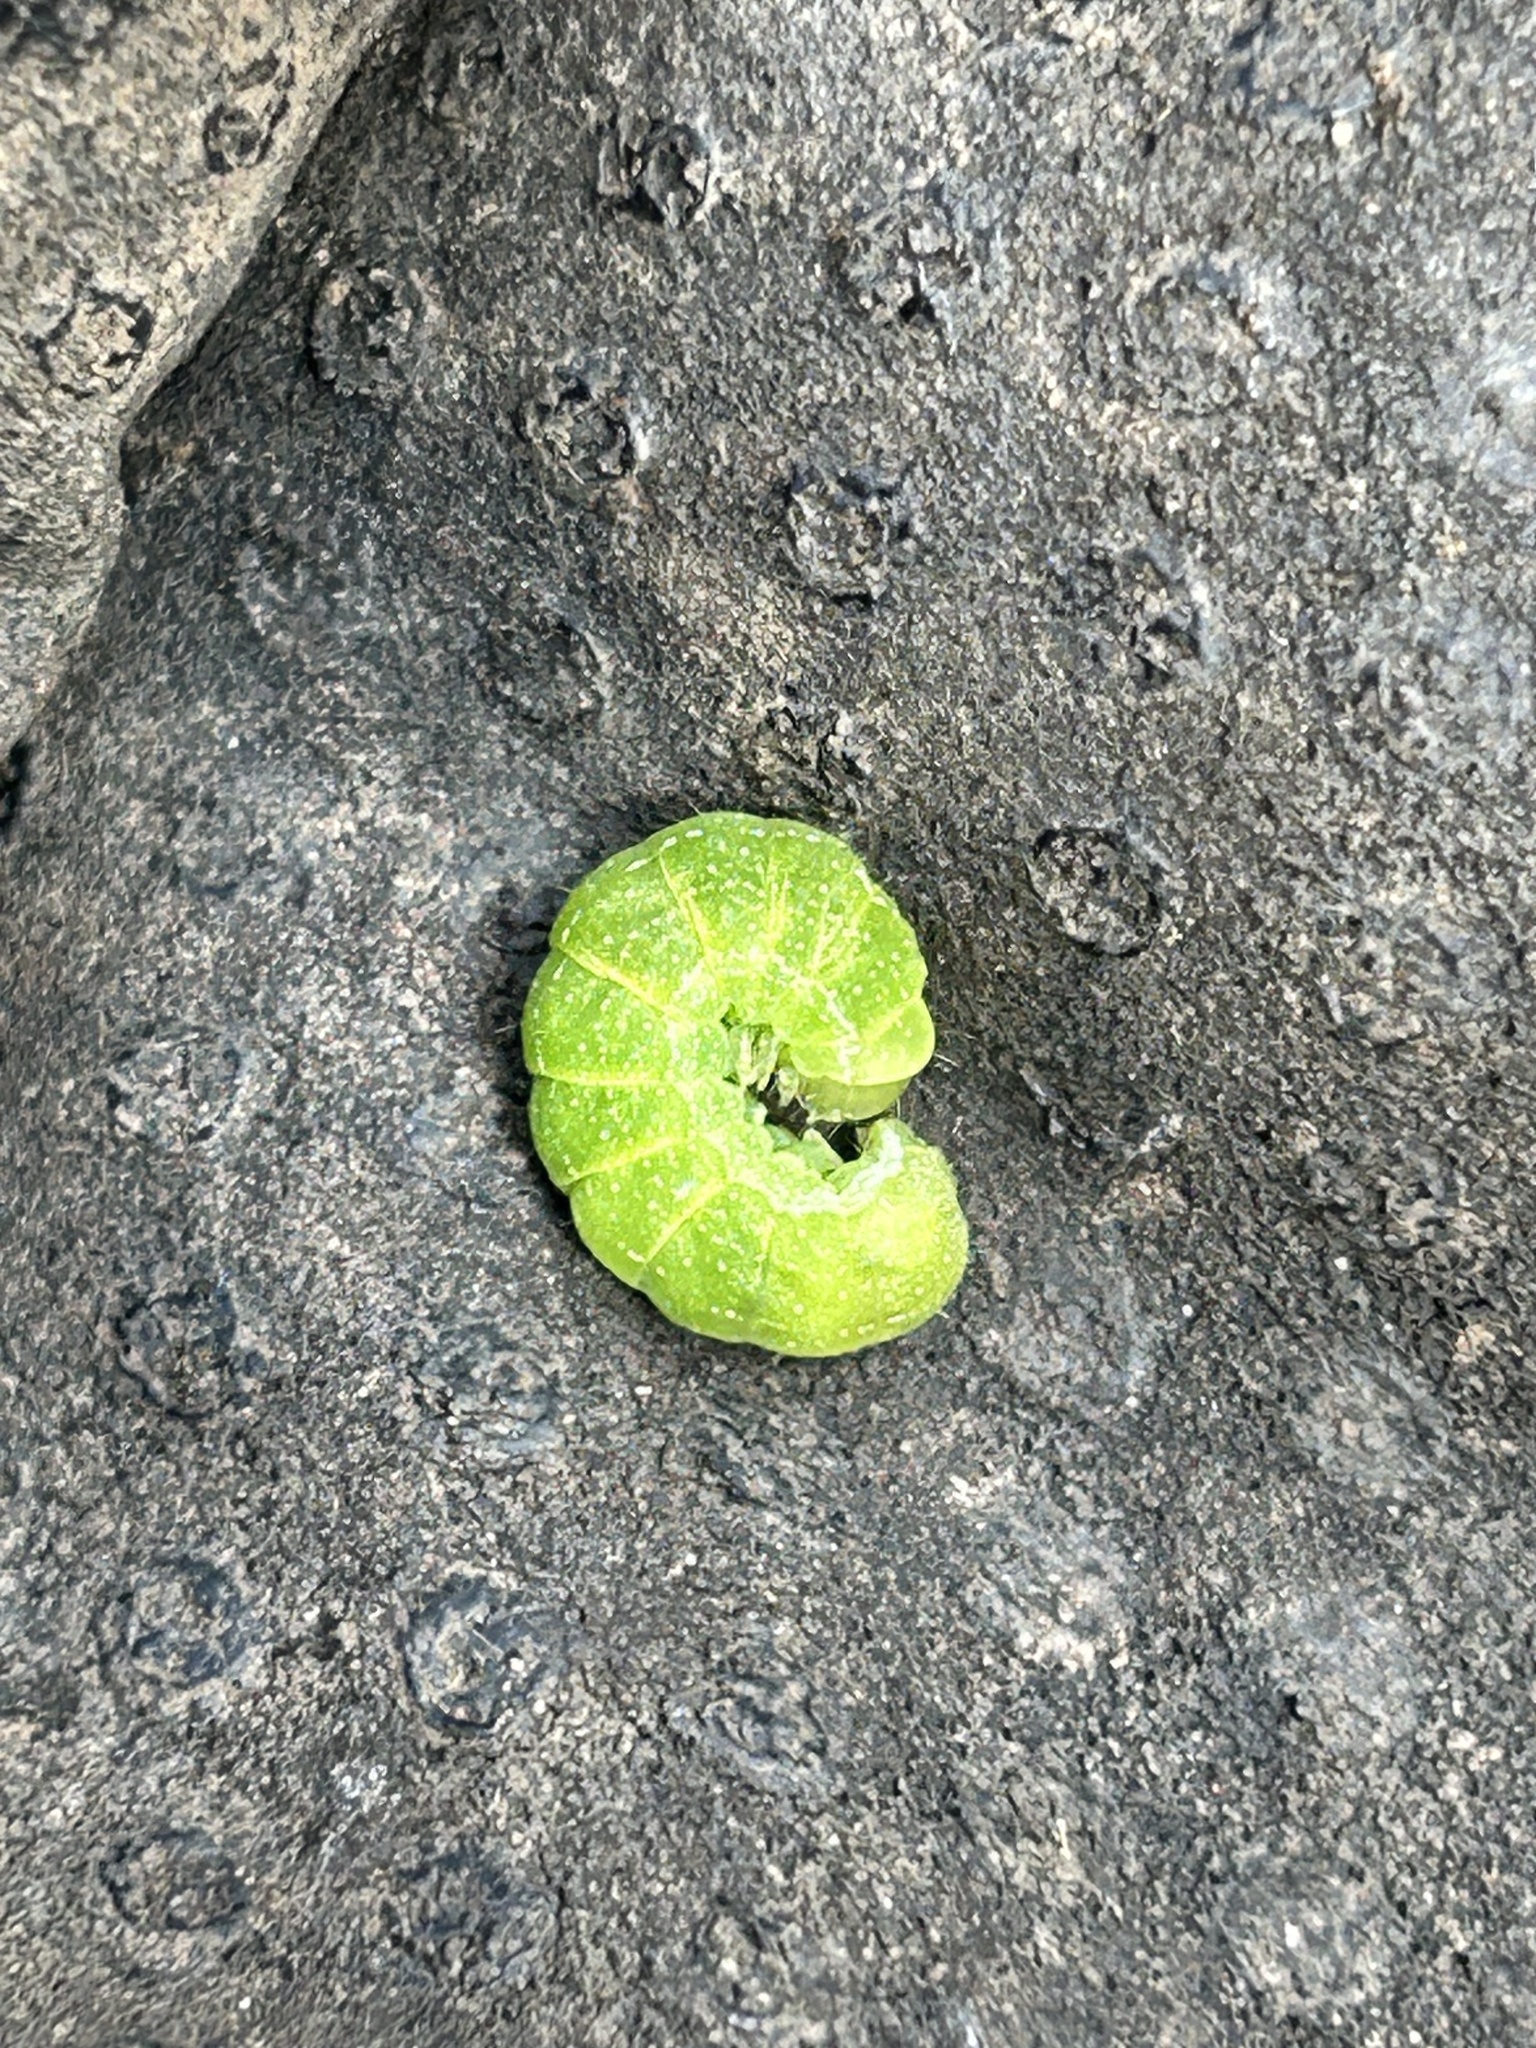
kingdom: Animalia
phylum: Arthropoda
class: Insecta
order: Lepidoptera
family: Noctuidae
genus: Phlogophora
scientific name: Phlogophora meticulosa
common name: Angle shades
